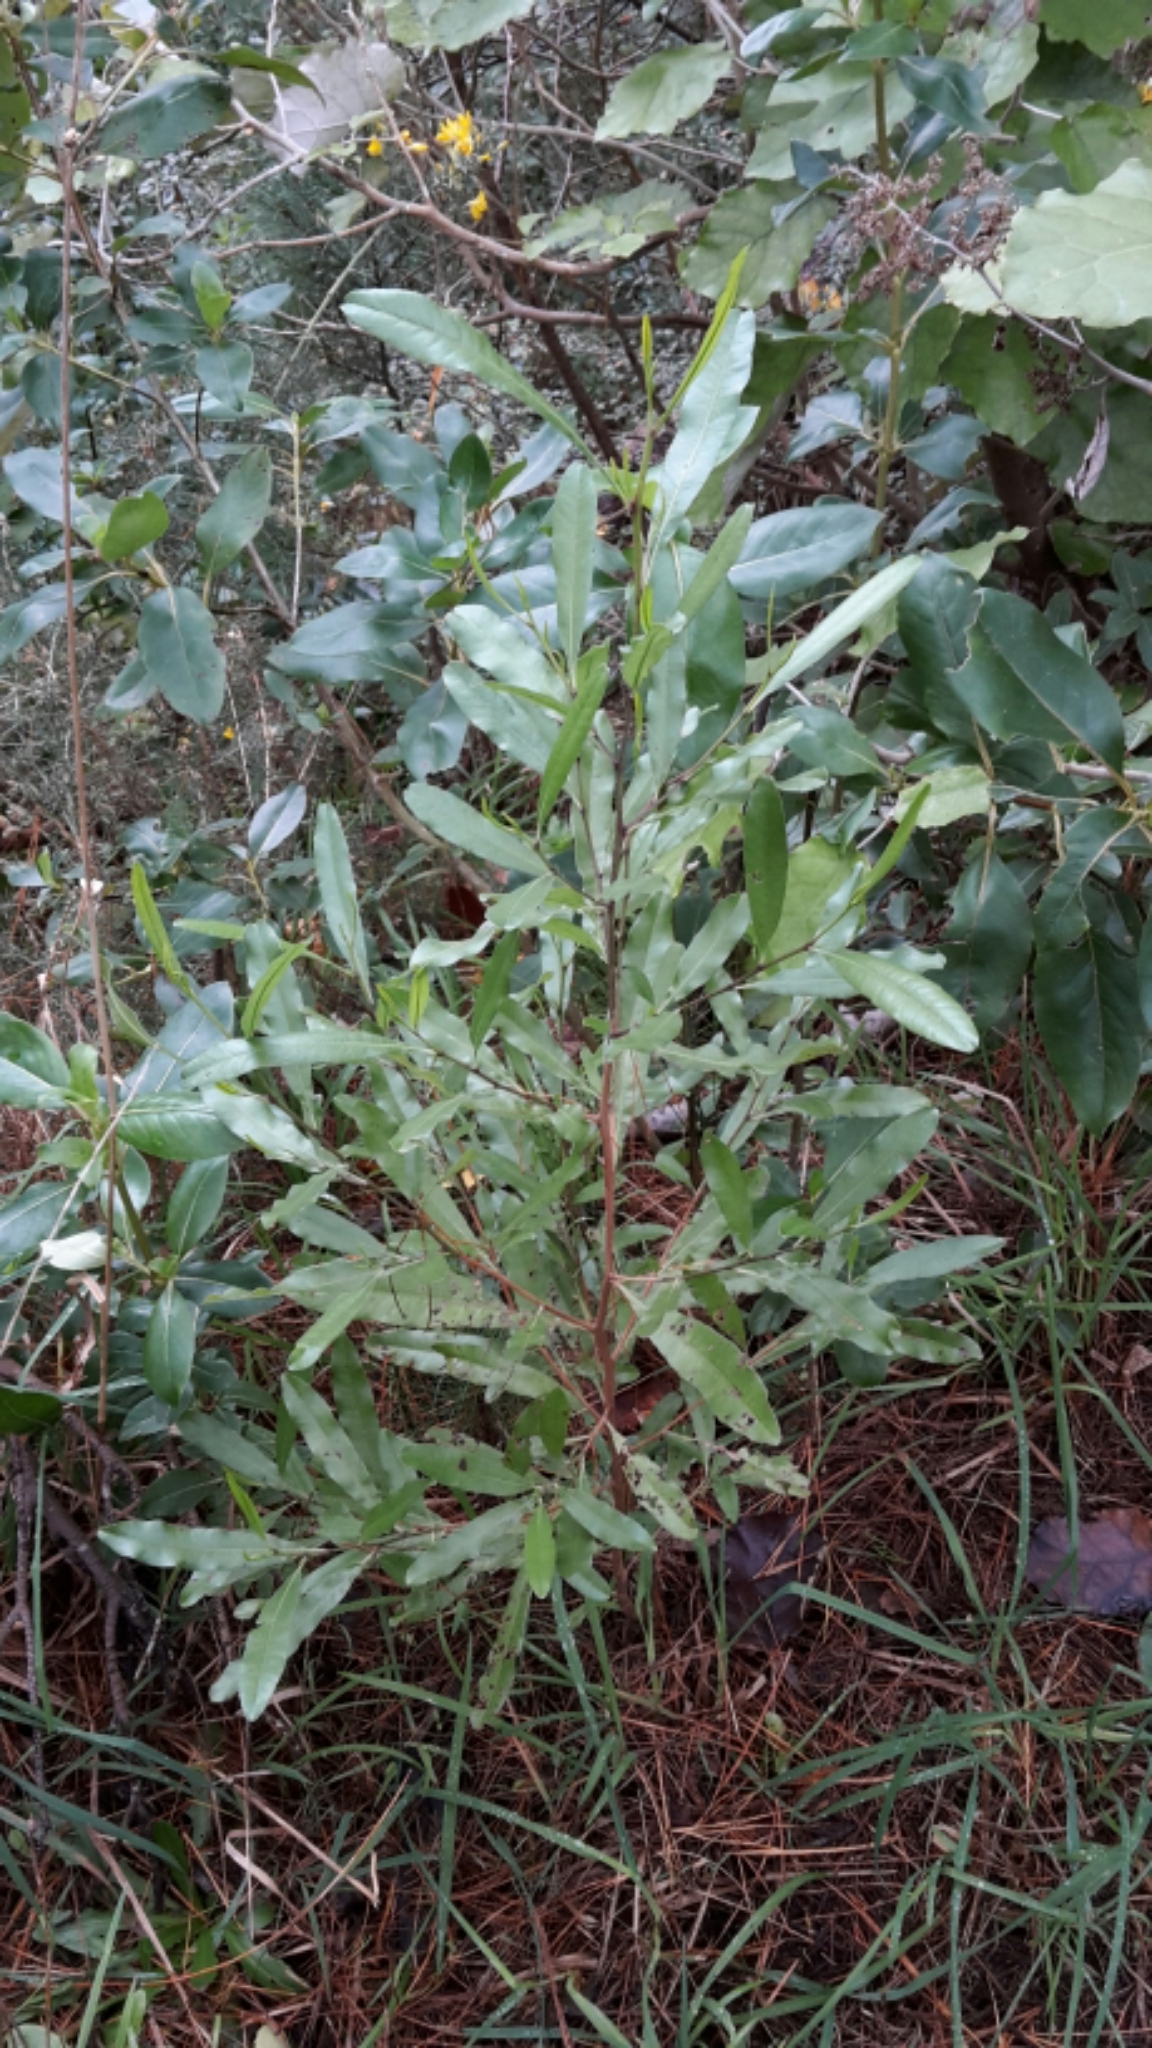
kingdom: Plantae
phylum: Tracheophyta
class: Magnoliopsida
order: Sapindales
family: Sapindaceae
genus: Dodonaea
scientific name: Dodonaea viscosa
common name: Hopbush
